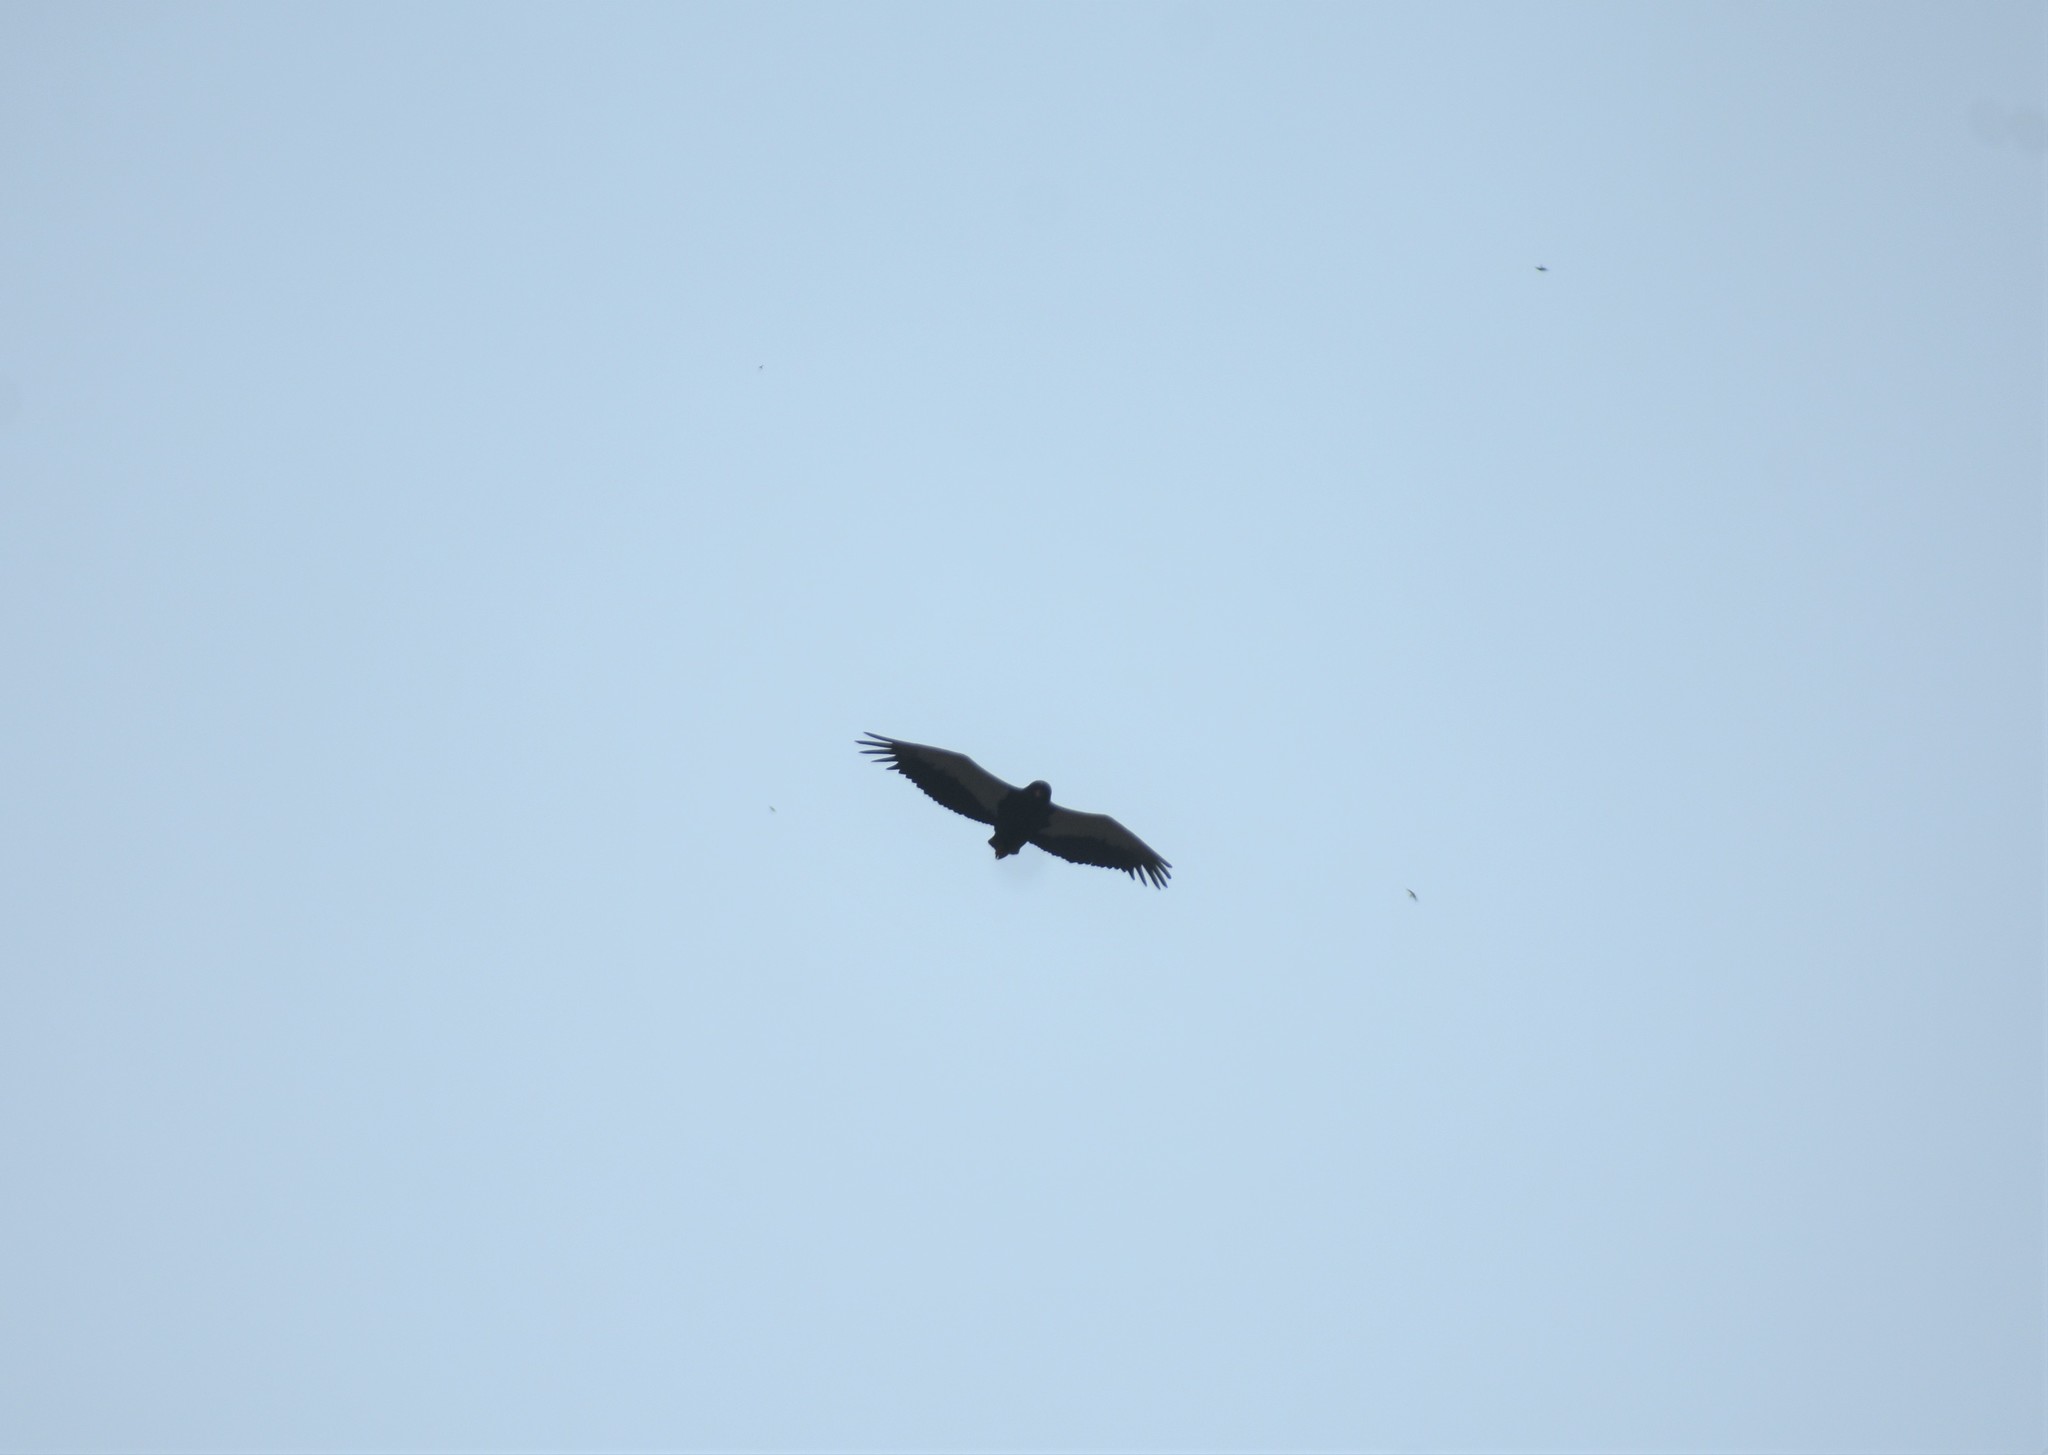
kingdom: Animalia
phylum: Chordata
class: Aves
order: Accipitriformes
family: Accipitridae
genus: Terathopius
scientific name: Terathopius ecaudatus
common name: Bateleur
